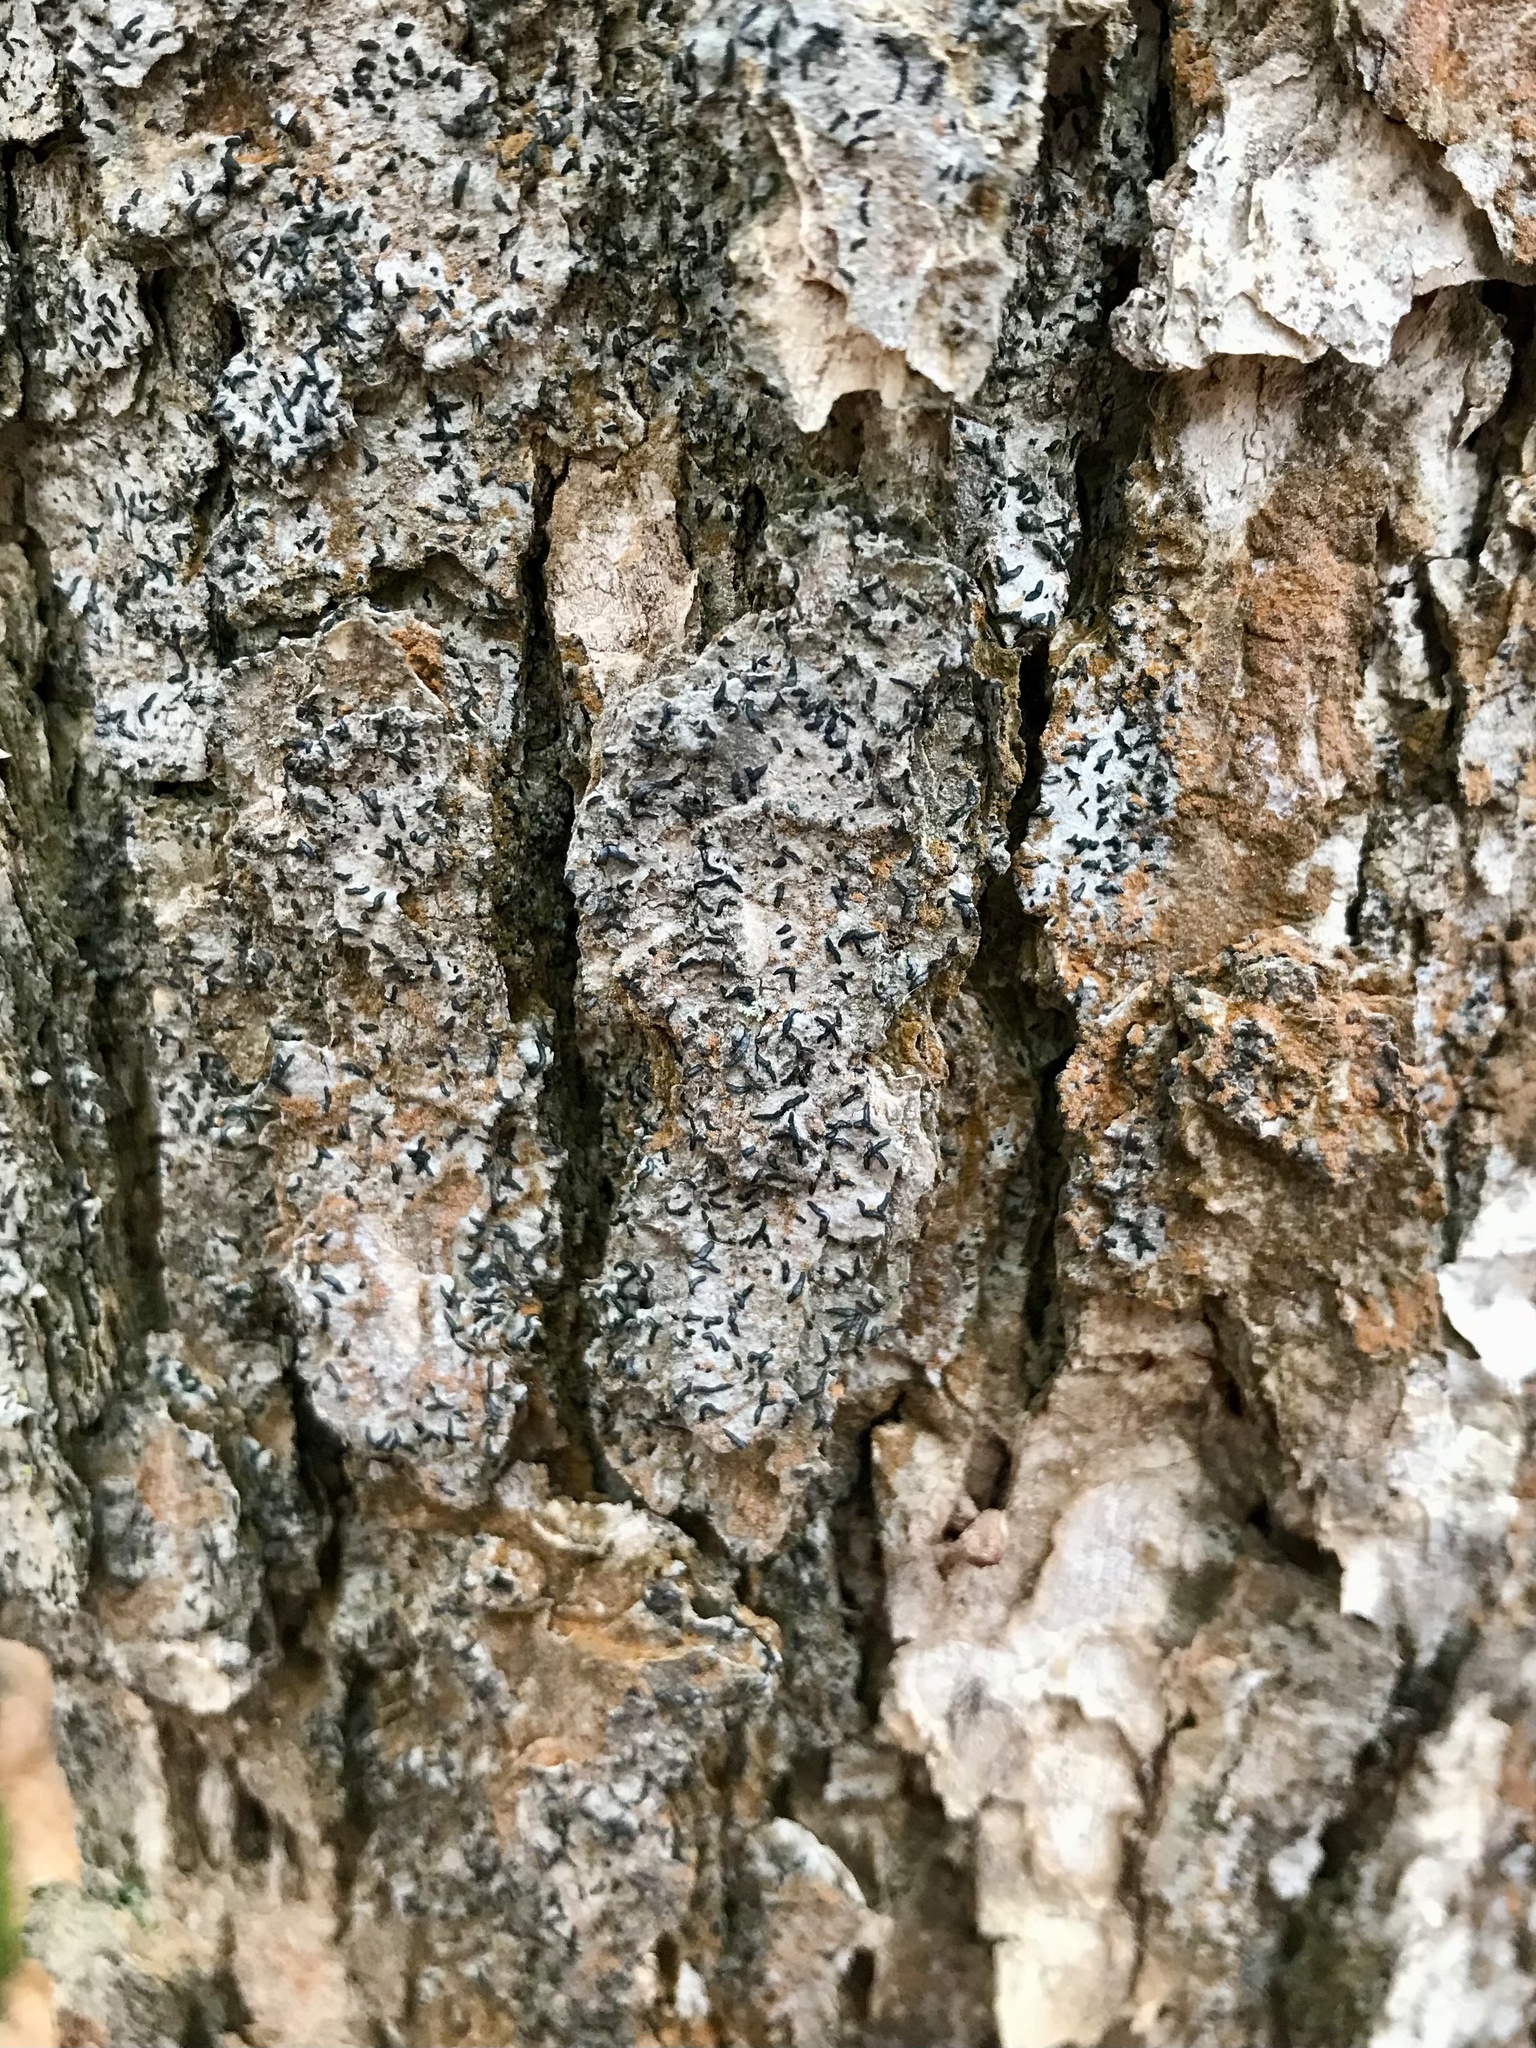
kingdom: Fungi
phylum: Ascomycota
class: Lecanoromycetes
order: Ostropales
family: Graphidaceae
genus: Graphis
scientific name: Graphis scripta
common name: Script lichen
